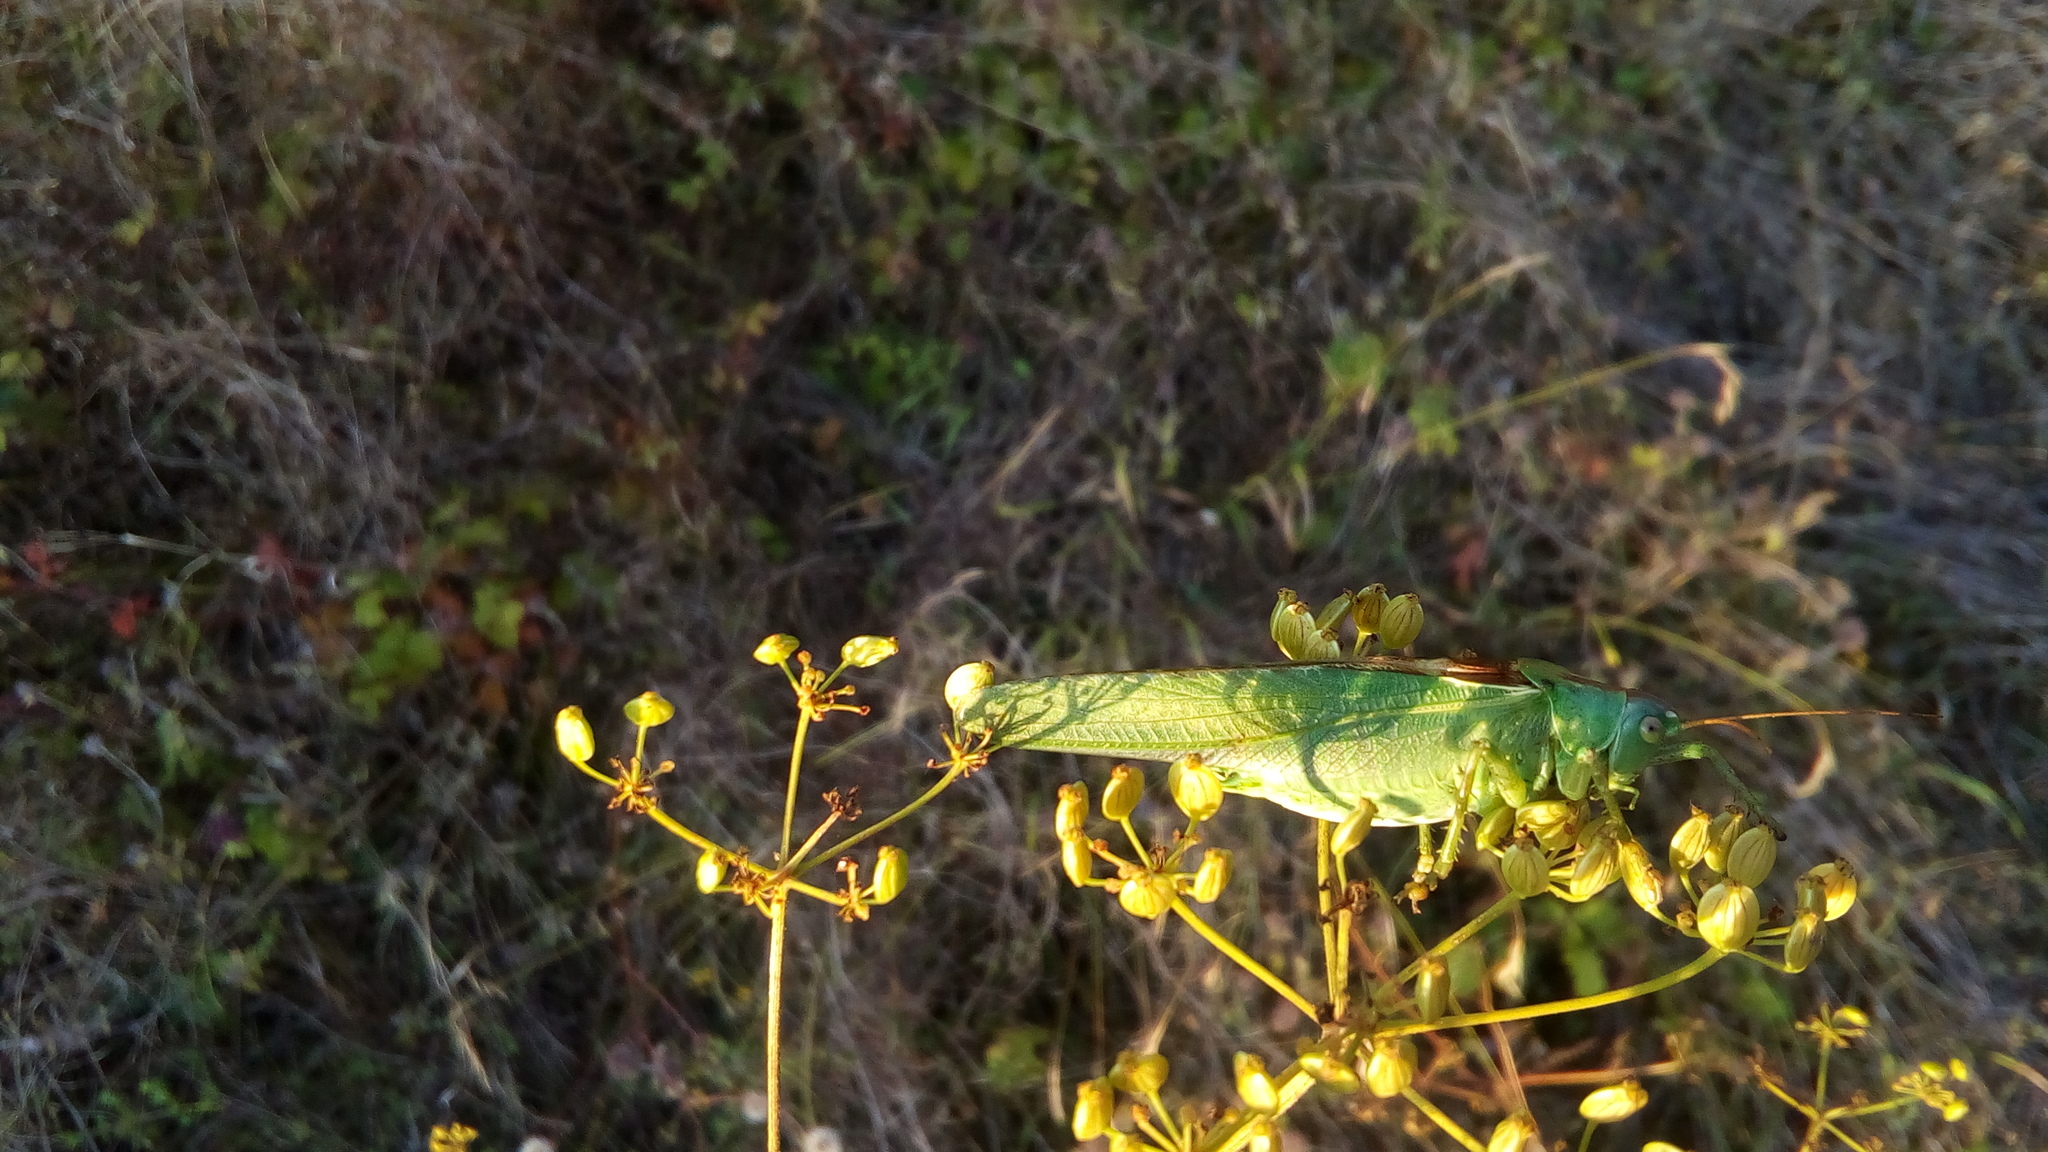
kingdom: Animalia
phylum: Arthropoda
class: Insecta
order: Orthoptera
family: Tettigoniidae
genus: Tettigonia
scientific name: Tettigonia viridissima
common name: Great green bush-cricket
